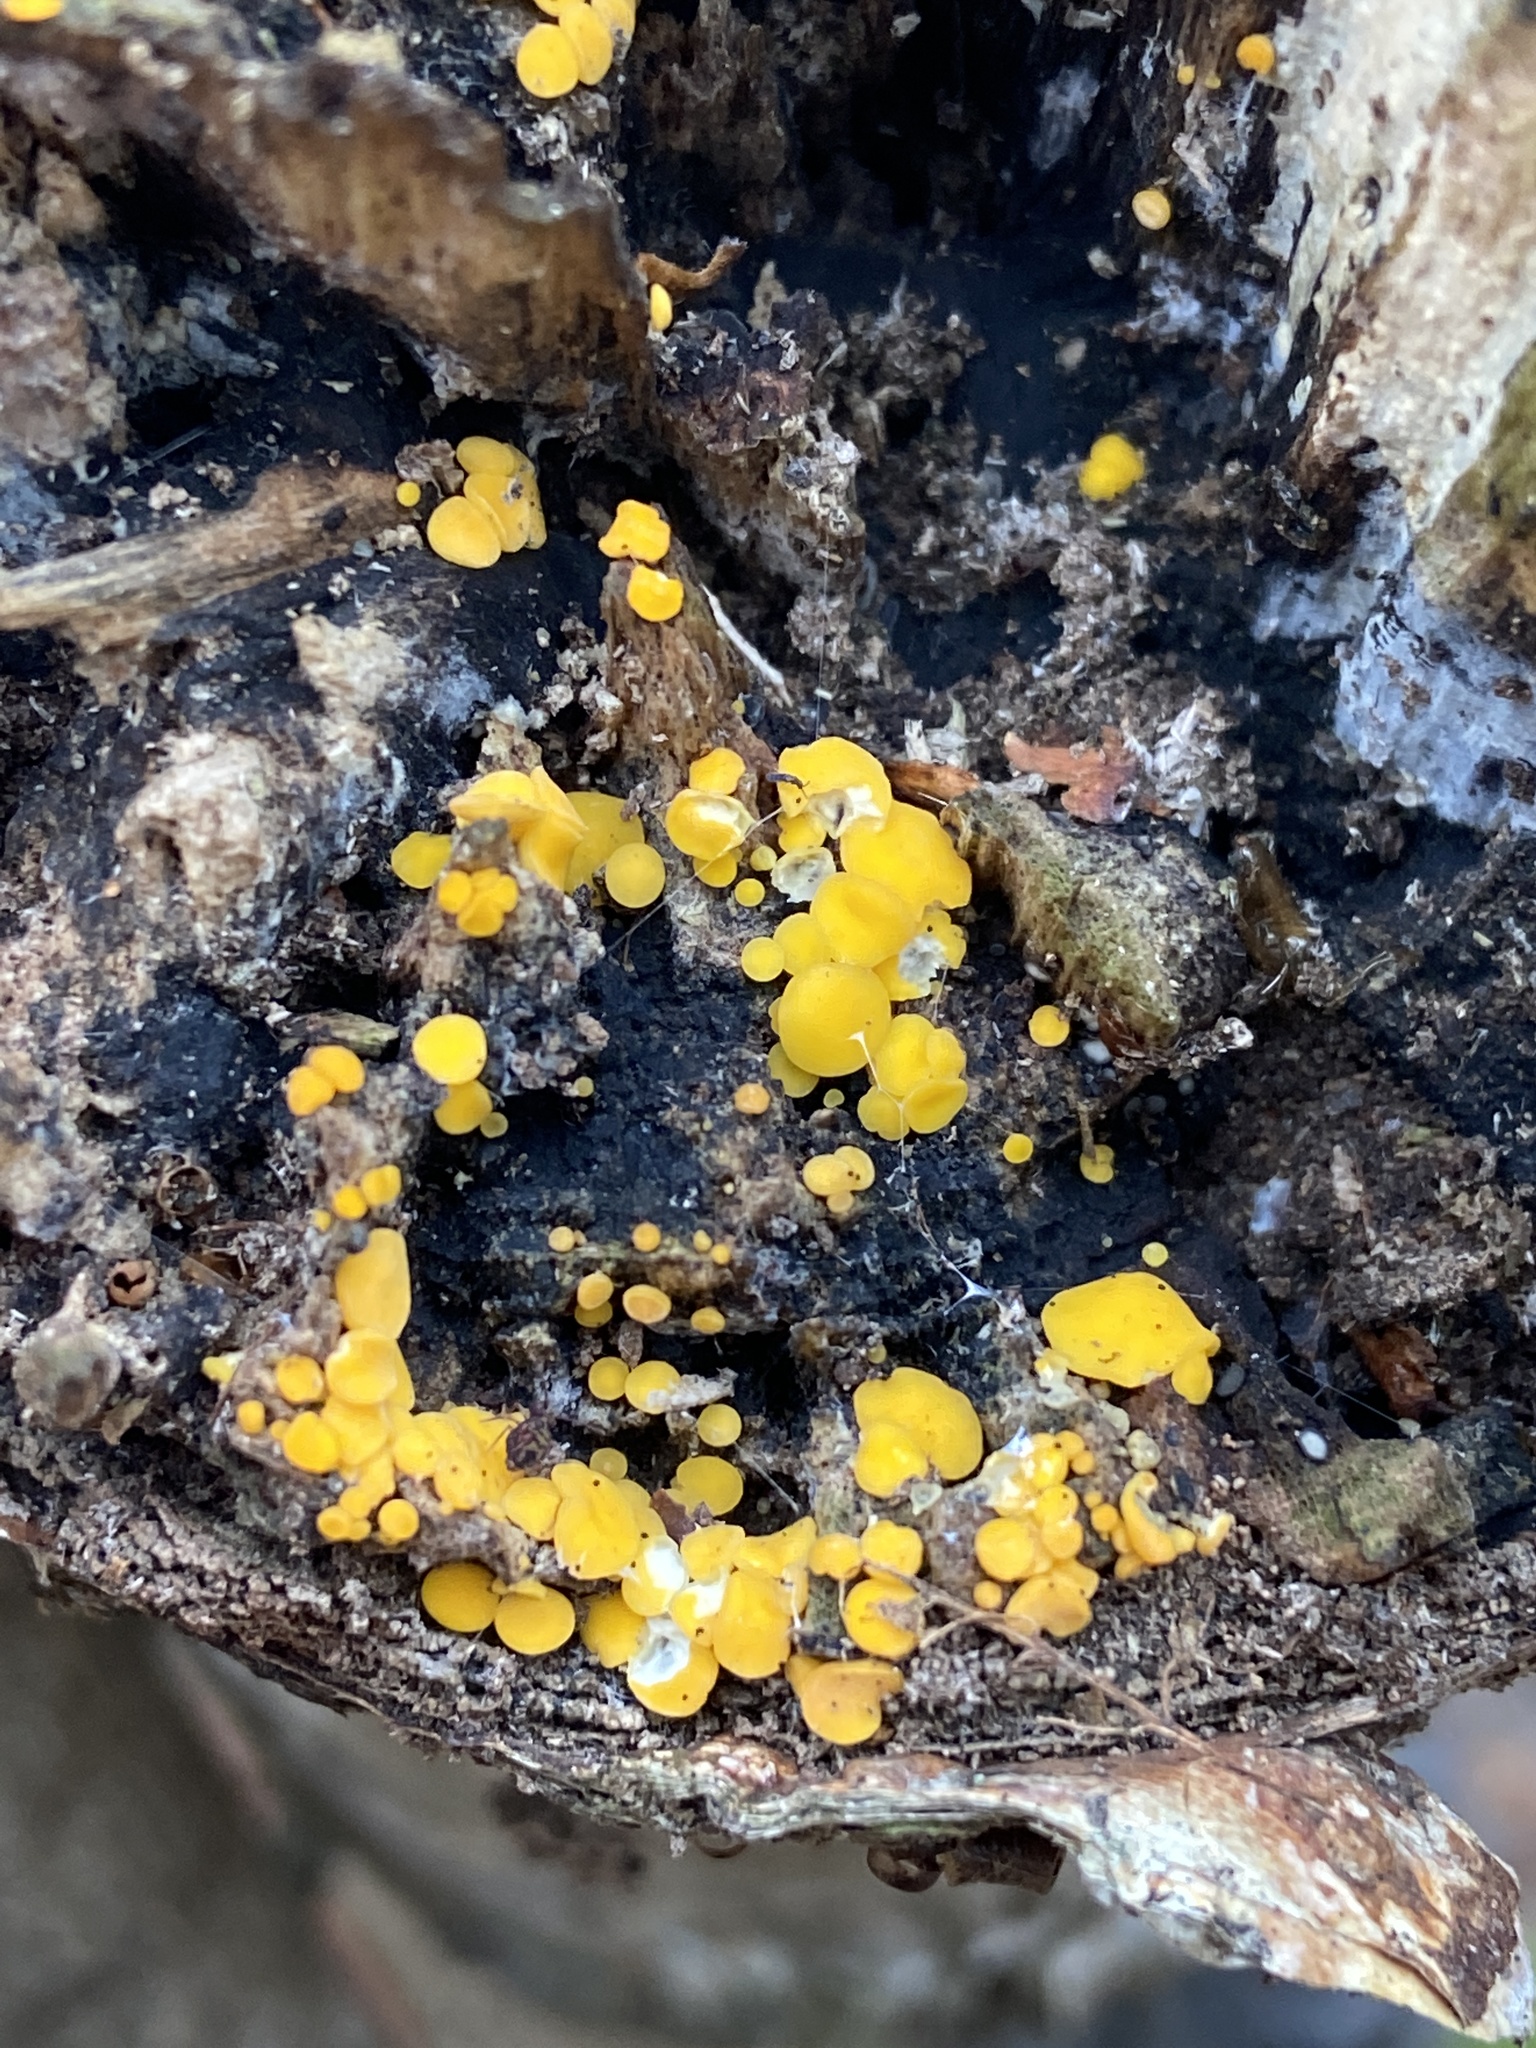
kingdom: Fungi
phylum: Ascomycota
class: Leotiomycetes
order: Helotiales
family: Pezizellaceae
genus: Calycina
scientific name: Calycina citrina
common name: Yellow fairy cups
